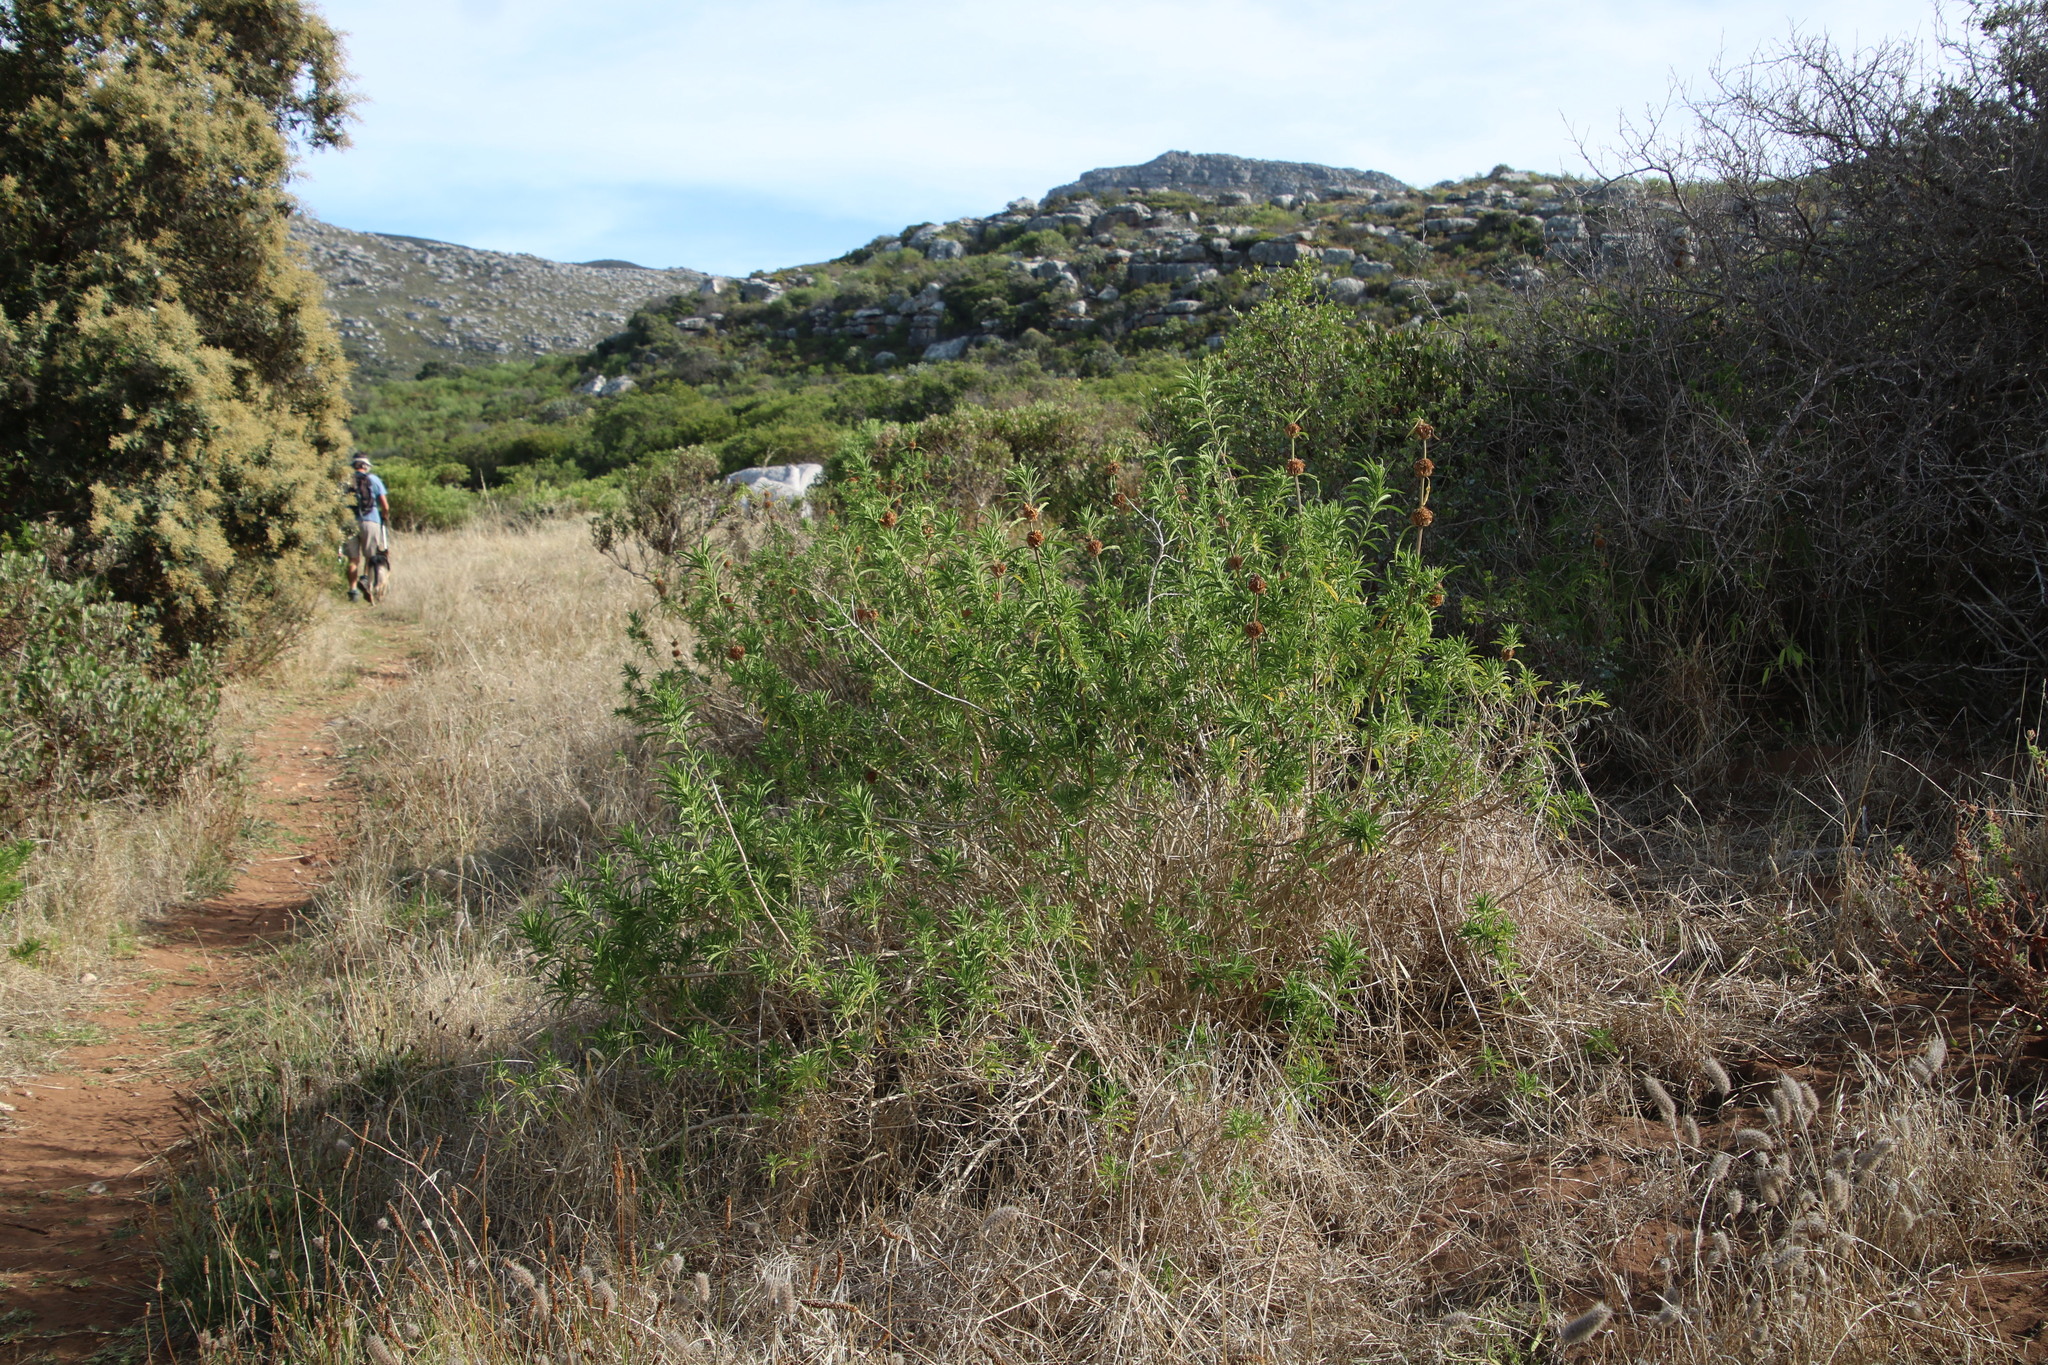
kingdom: Plantae
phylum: Tracheophyta
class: Magnoliopsida
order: Lamiales
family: Lamiaceae
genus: Leonotis
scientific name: Leonotis leonurus
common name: Lion's ear
